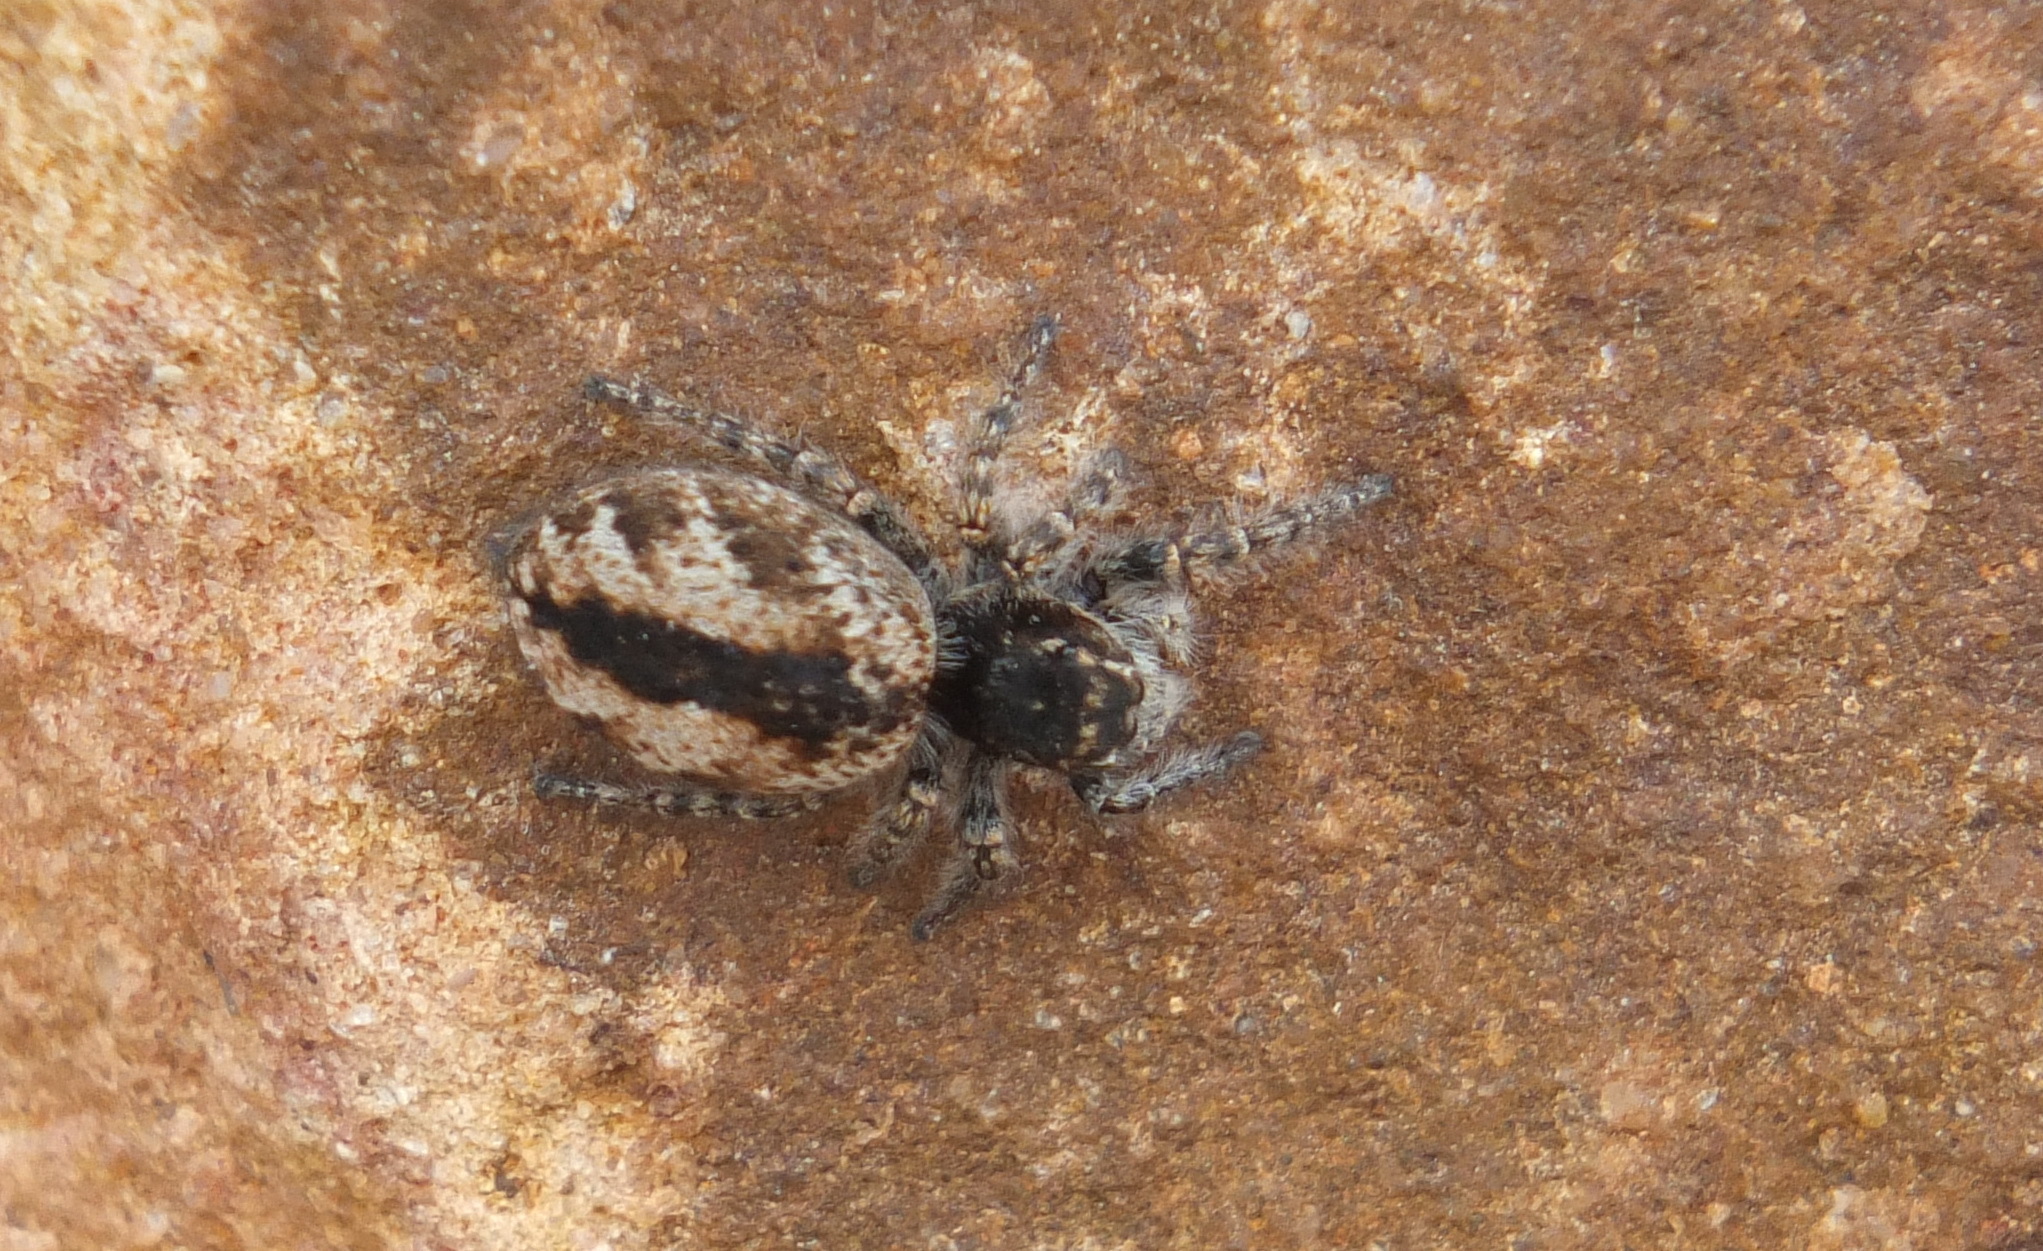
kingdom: Animalia
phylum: Arthropoda
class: Arachnida
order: Araneae
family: Salticidae
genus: Philaeus
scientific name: Philaeus chrysops
